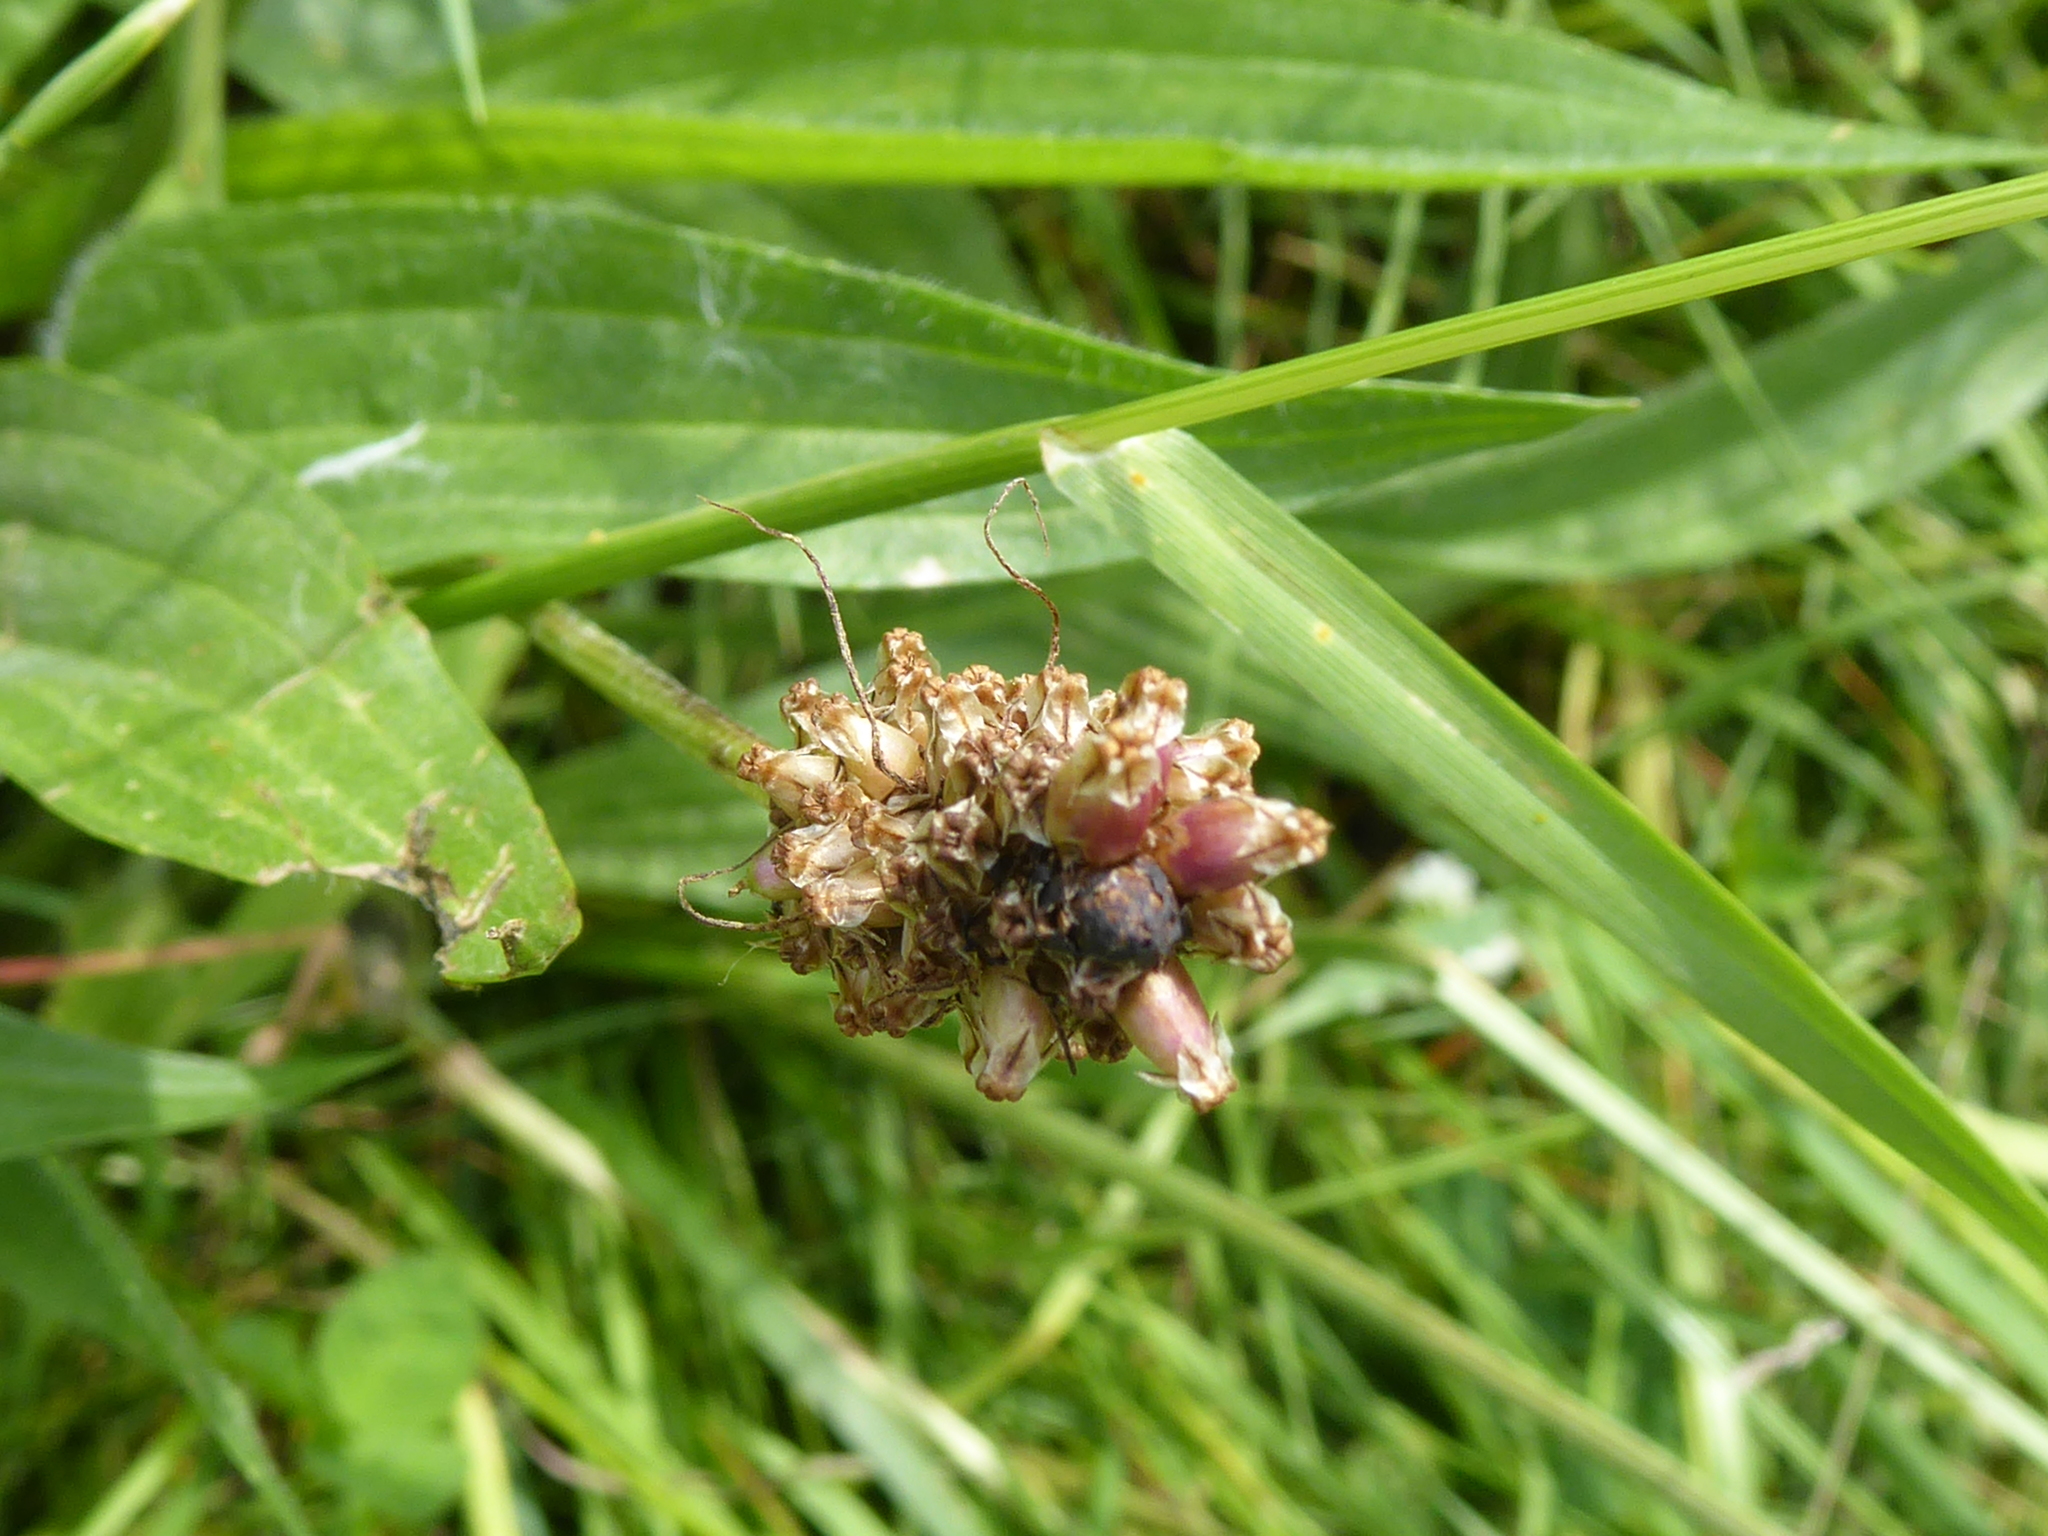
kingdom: Plantae
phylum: Tracheophyta
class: Magnoliopsida
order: Lamiales
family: Plantaginaceae
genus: Plantago
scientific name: Plantago lanceolata
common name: Ribwort plantain
